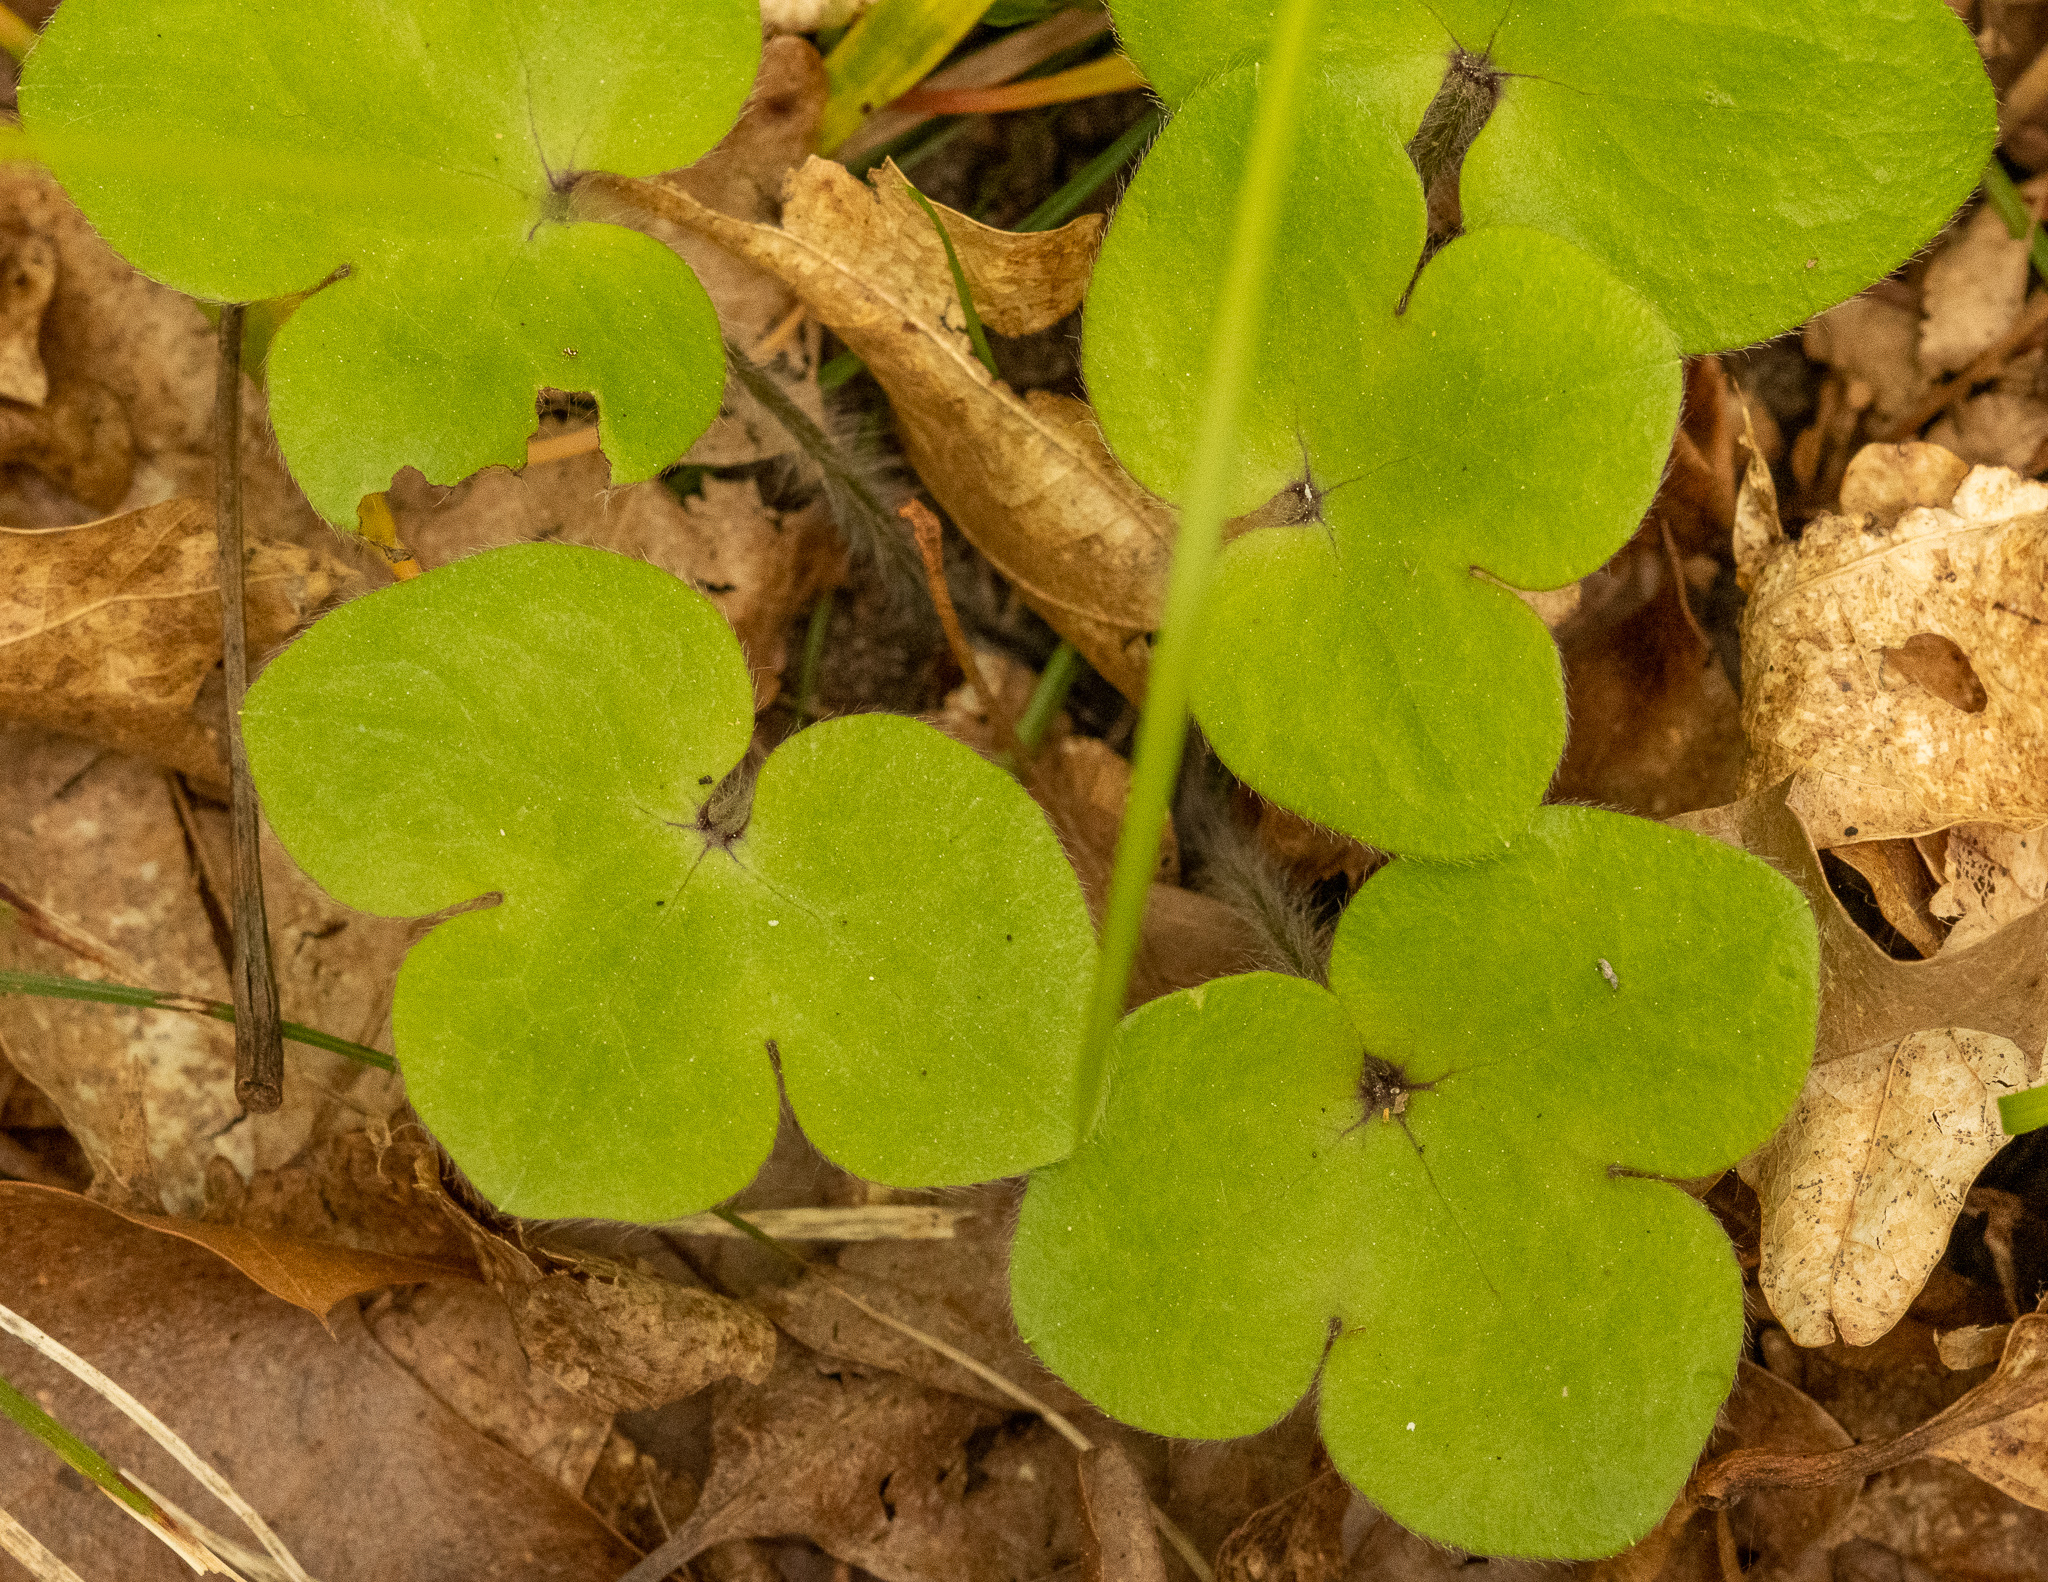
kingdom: Plantae
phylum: Tracheophyta
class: Magnoliopsida
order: Ranunculales
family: Ranunculaceae
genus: Hepatica
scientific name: Hepatica americana
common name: American hepatica
